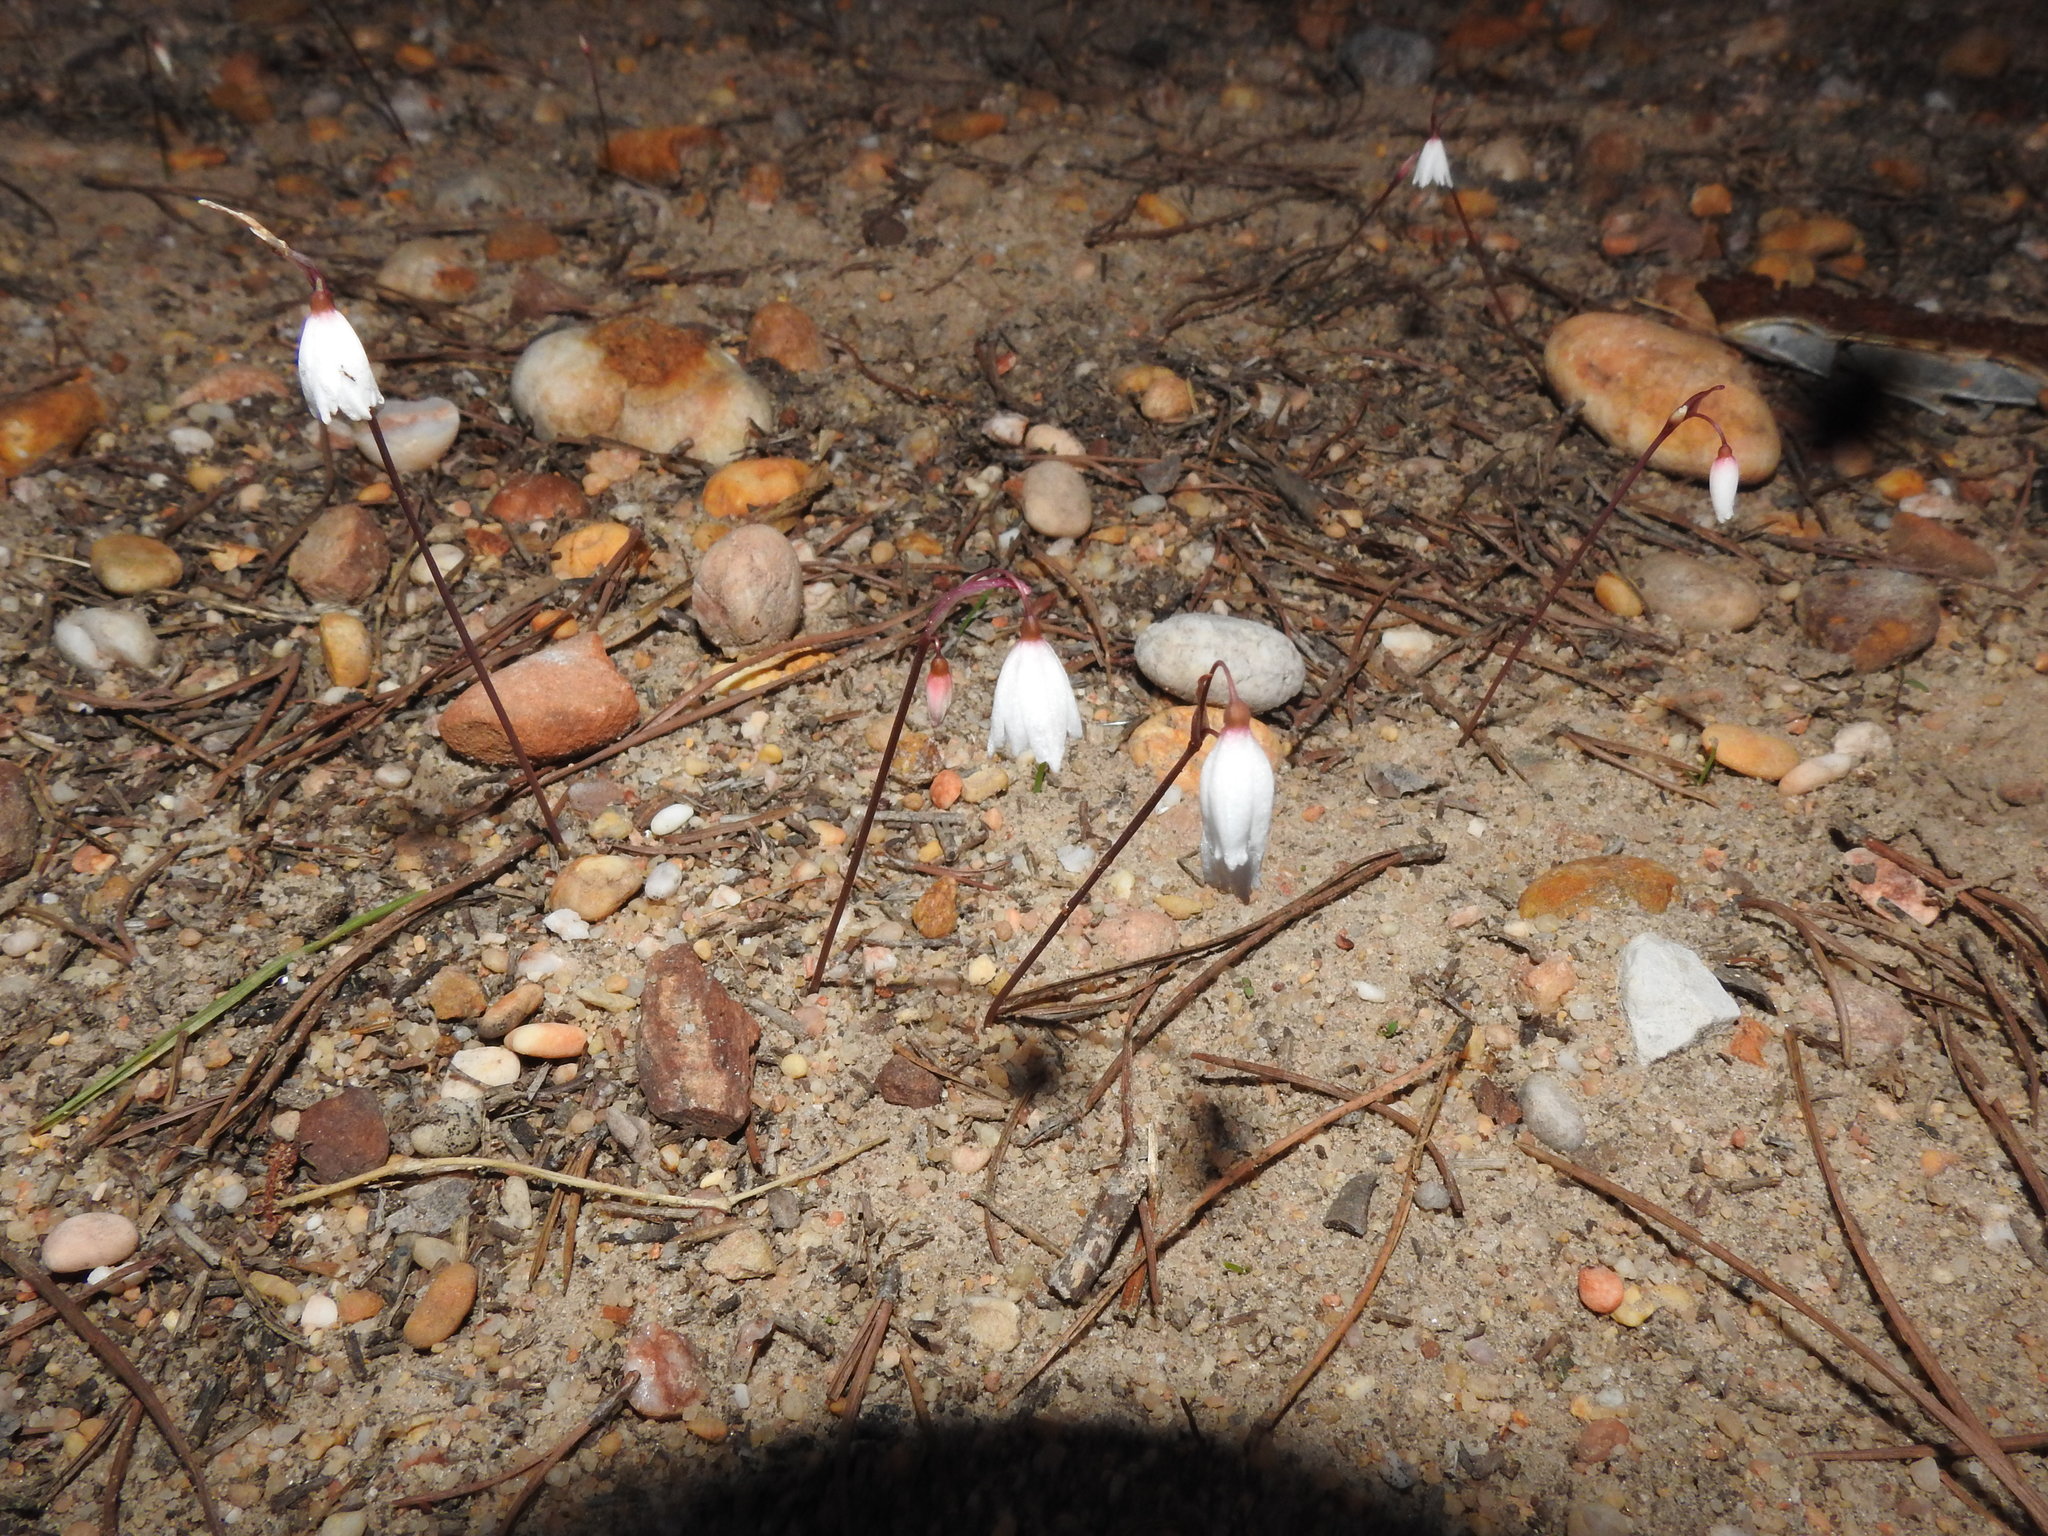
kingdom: Plantae
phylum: Tracheophyta
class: Liliopsida
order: Asparagales
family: Amaryllidaceae
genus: Acis
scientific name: Acis autumnalis
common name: Autumn snowflake
